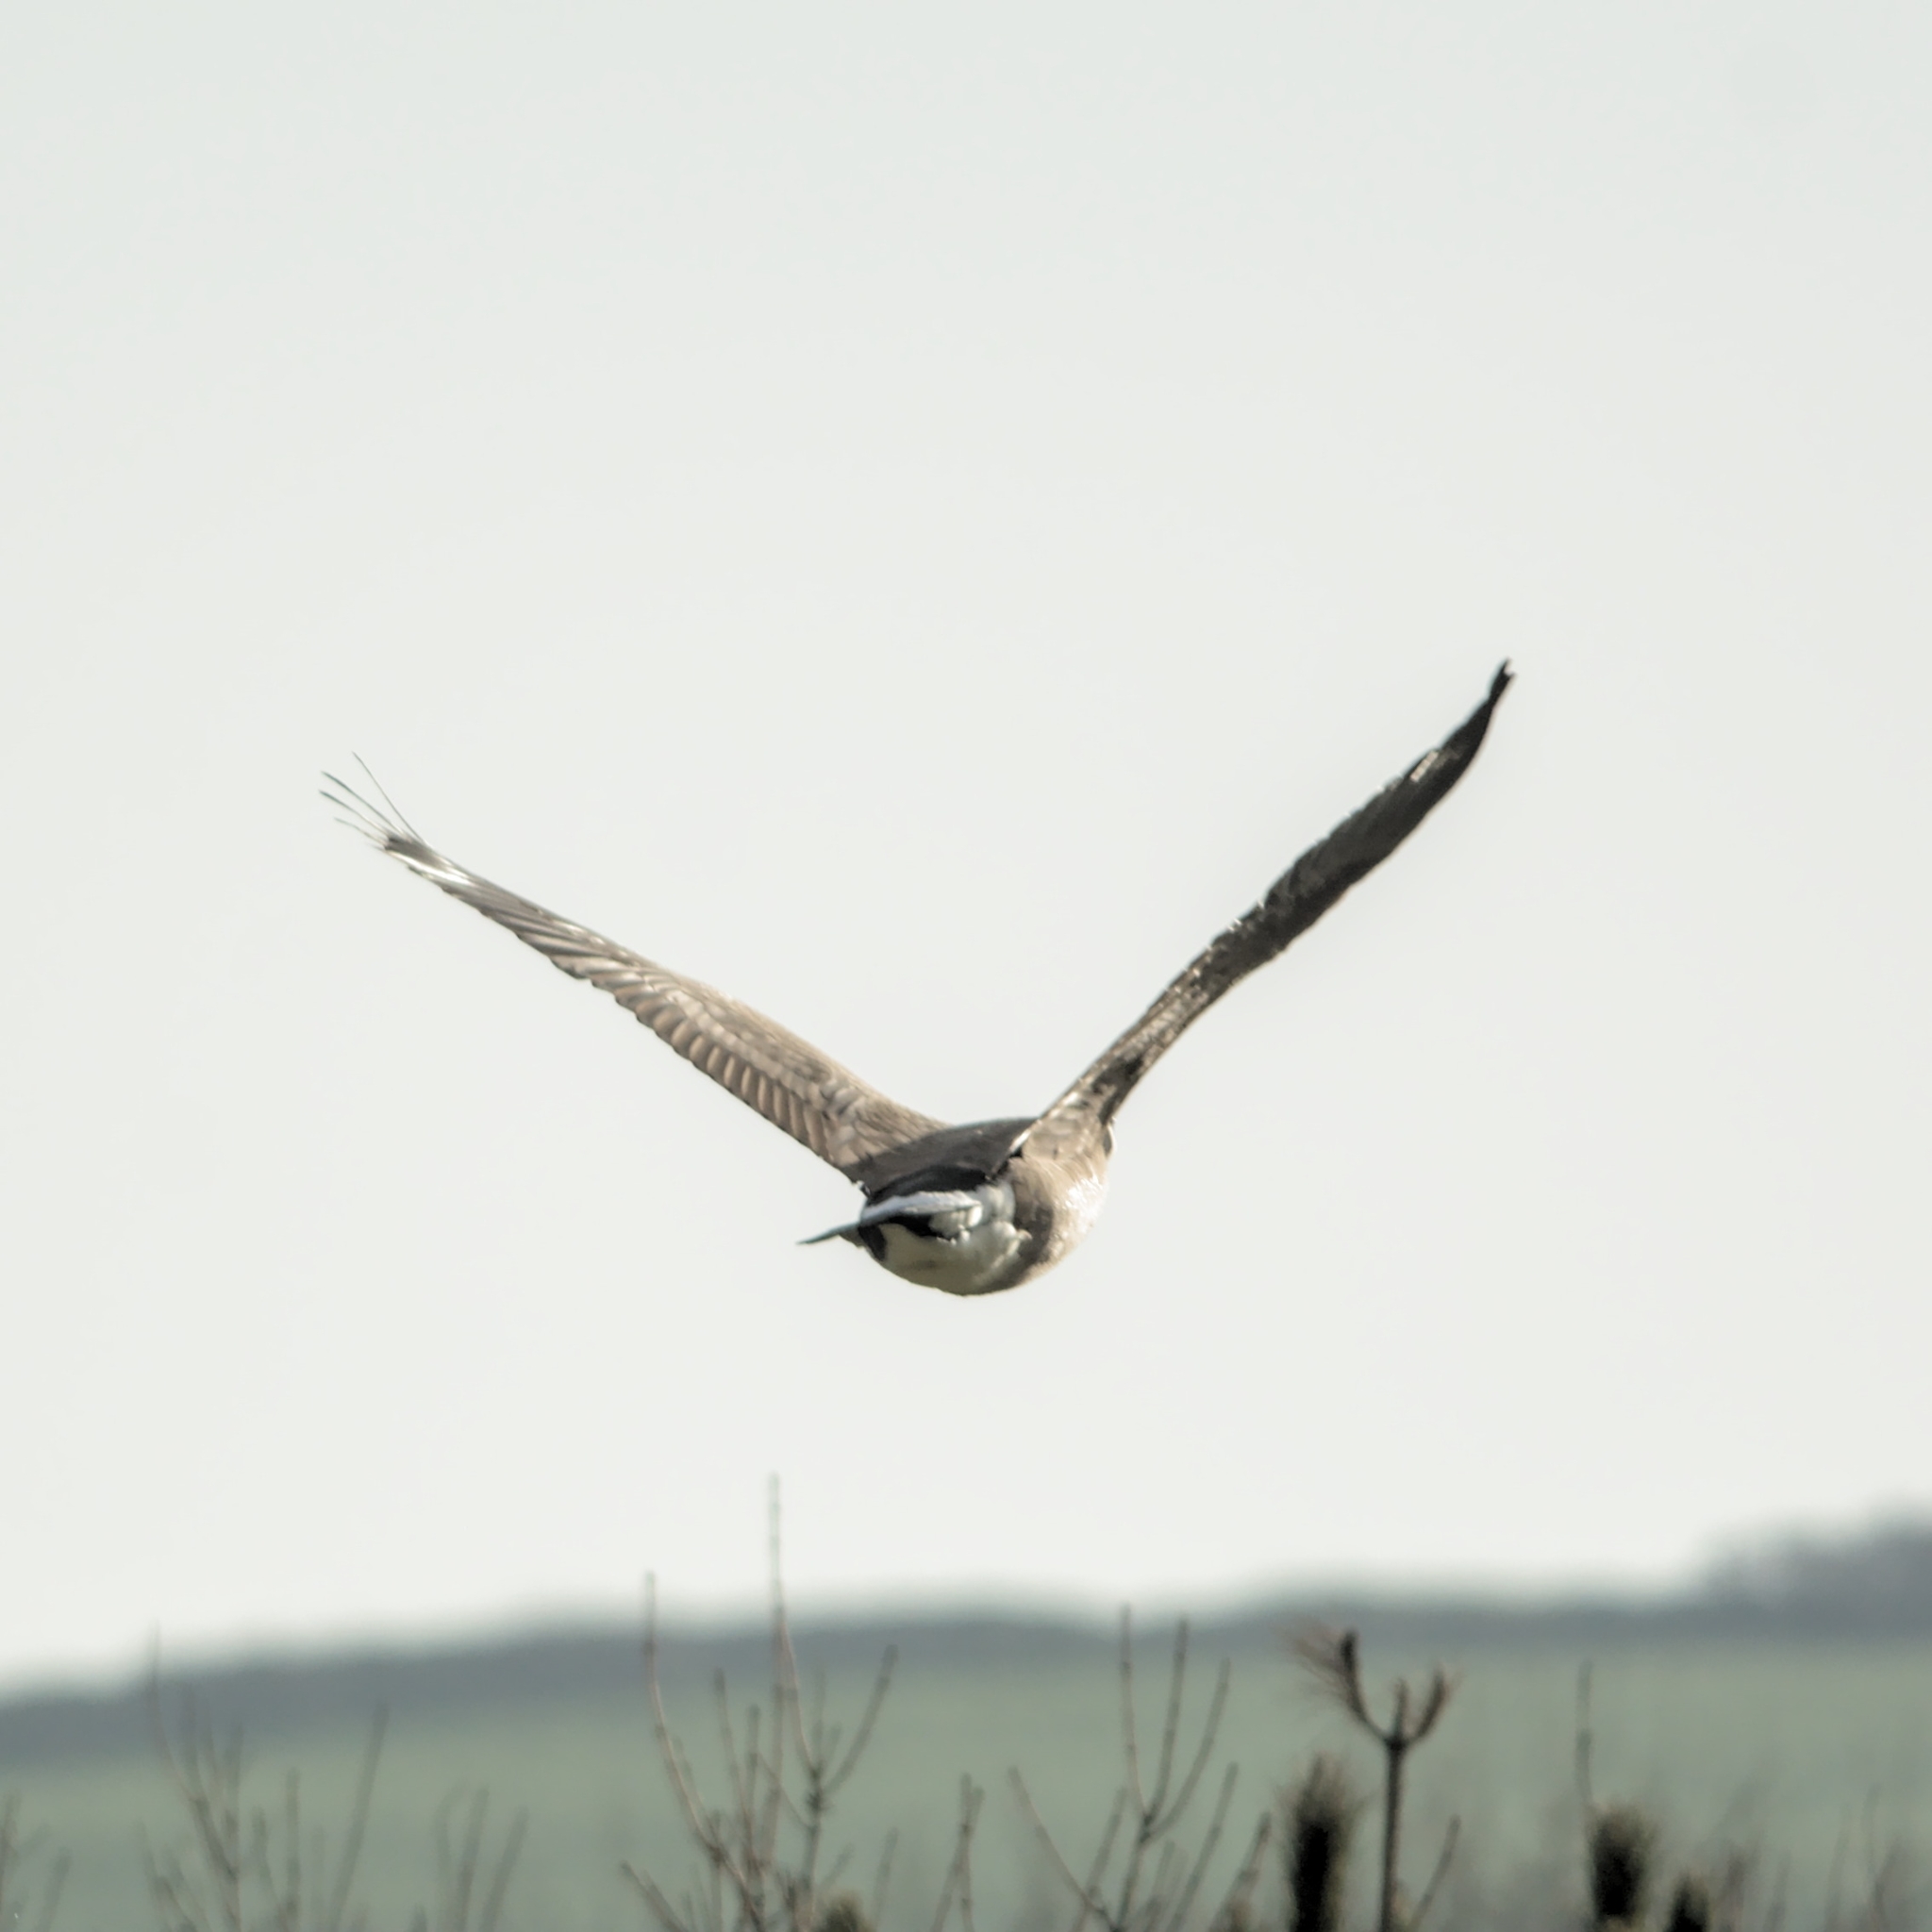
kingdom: Animalia
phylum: Chordata
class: Aves
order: Anseriformes
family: Anatidae
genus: Branta
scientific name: Branta canadensis
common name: Canada goose
